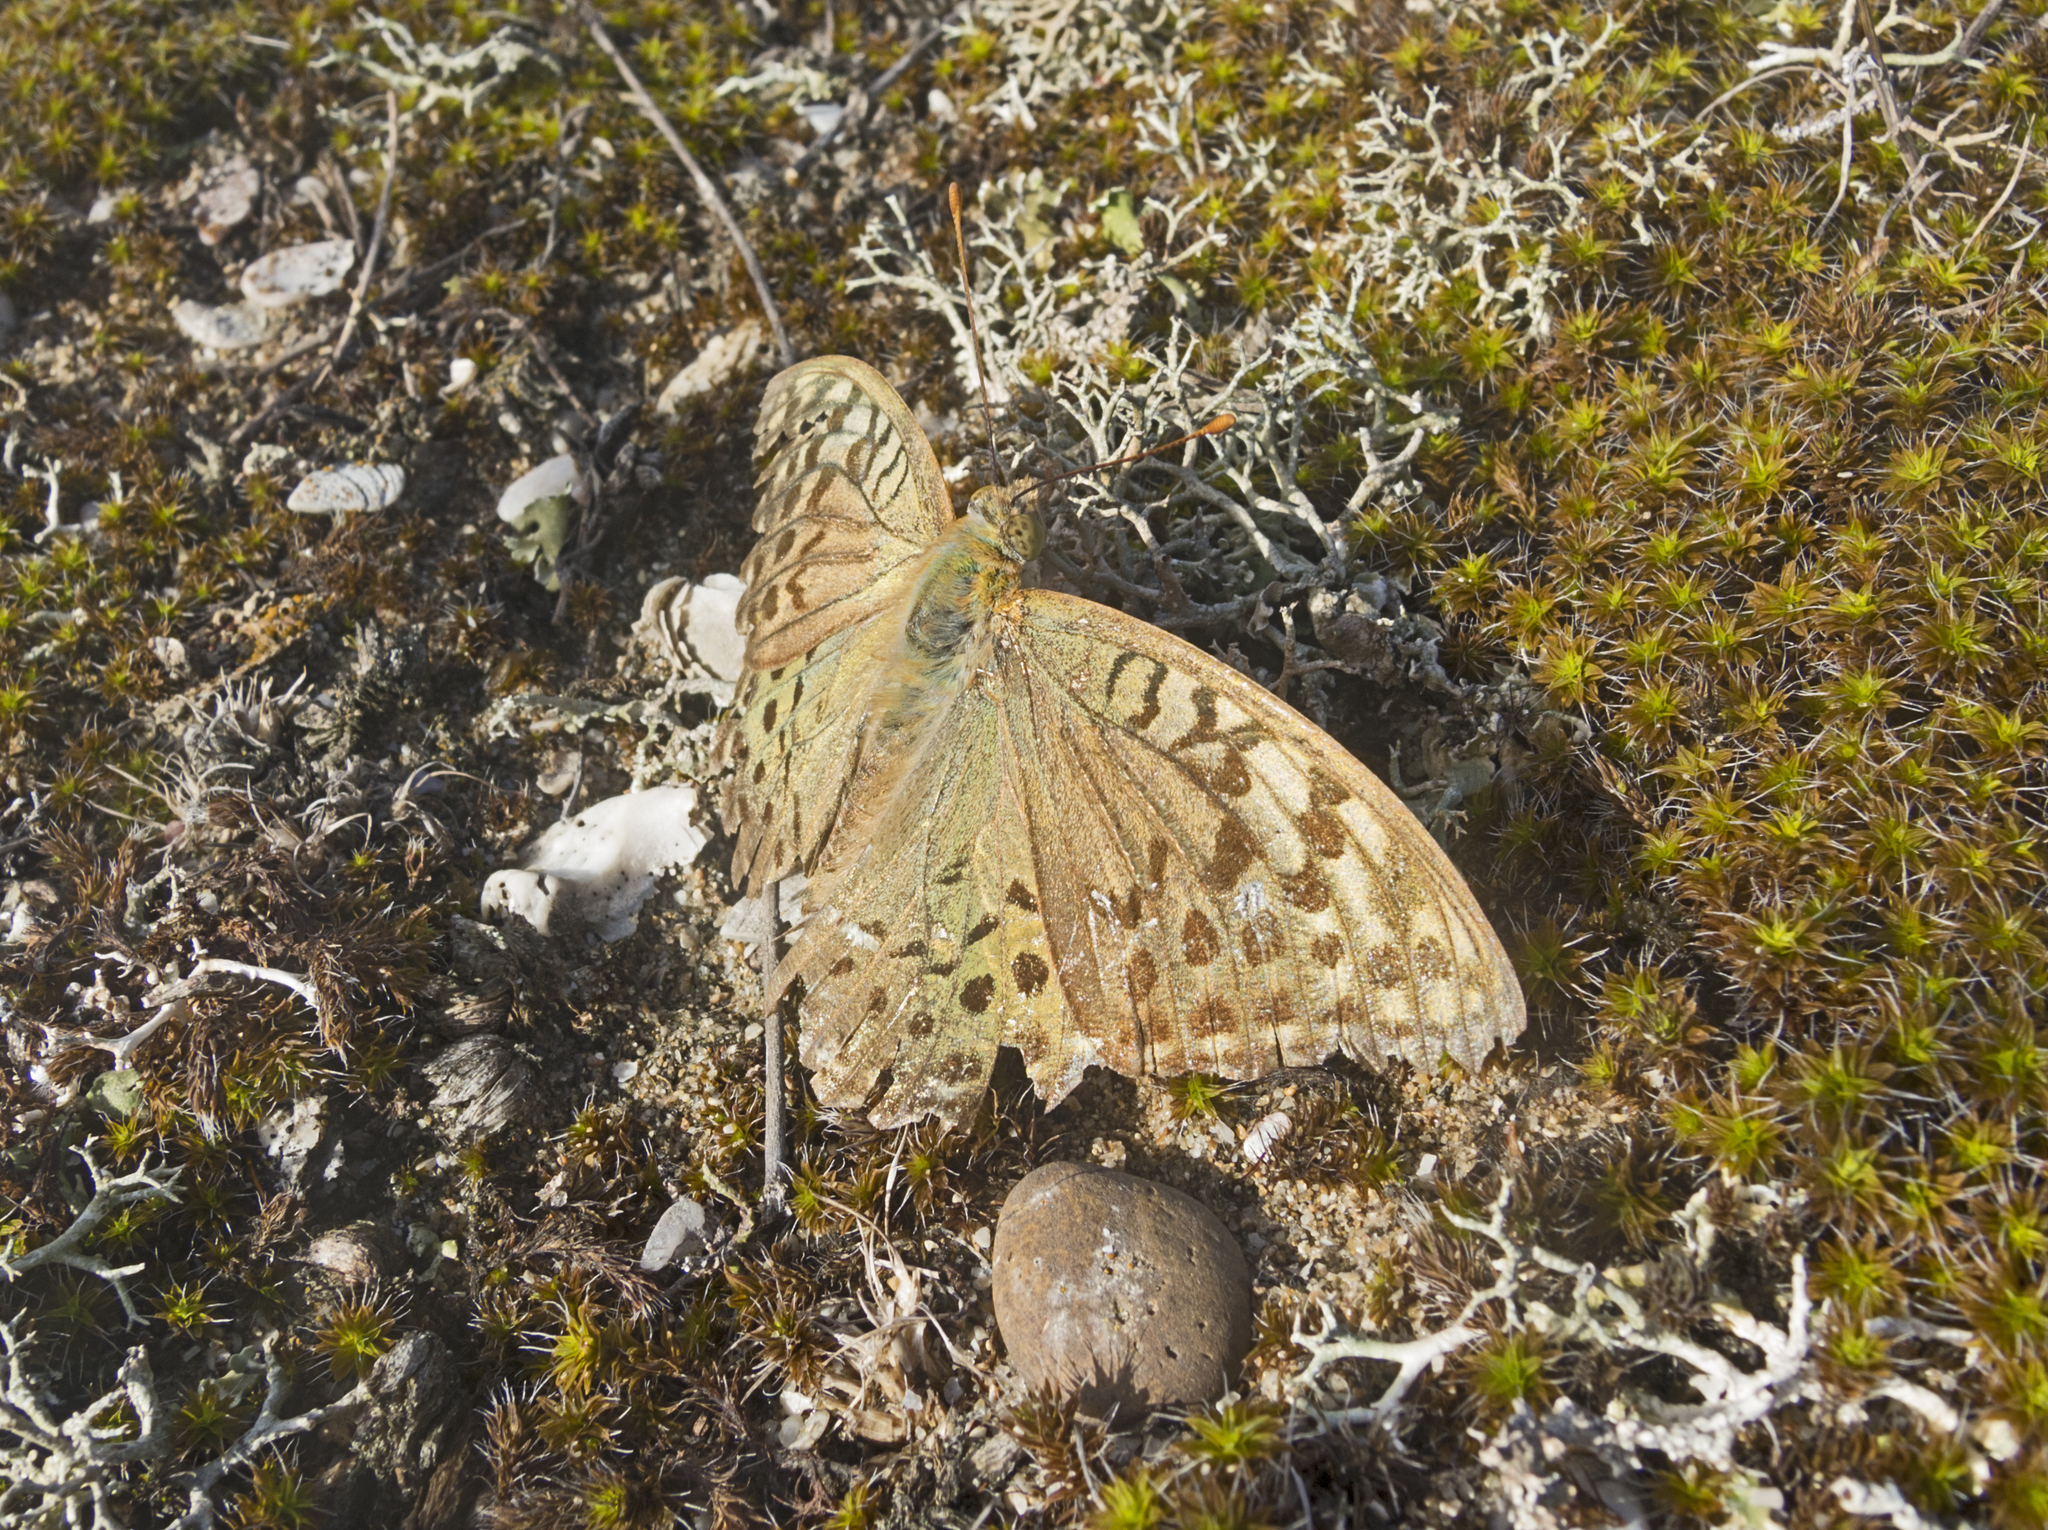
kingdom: Animalia
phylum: Arthropoda
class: Insecta
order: Lepidoptera
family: Nymphalidae
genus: Damora
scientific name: Damora pandora
